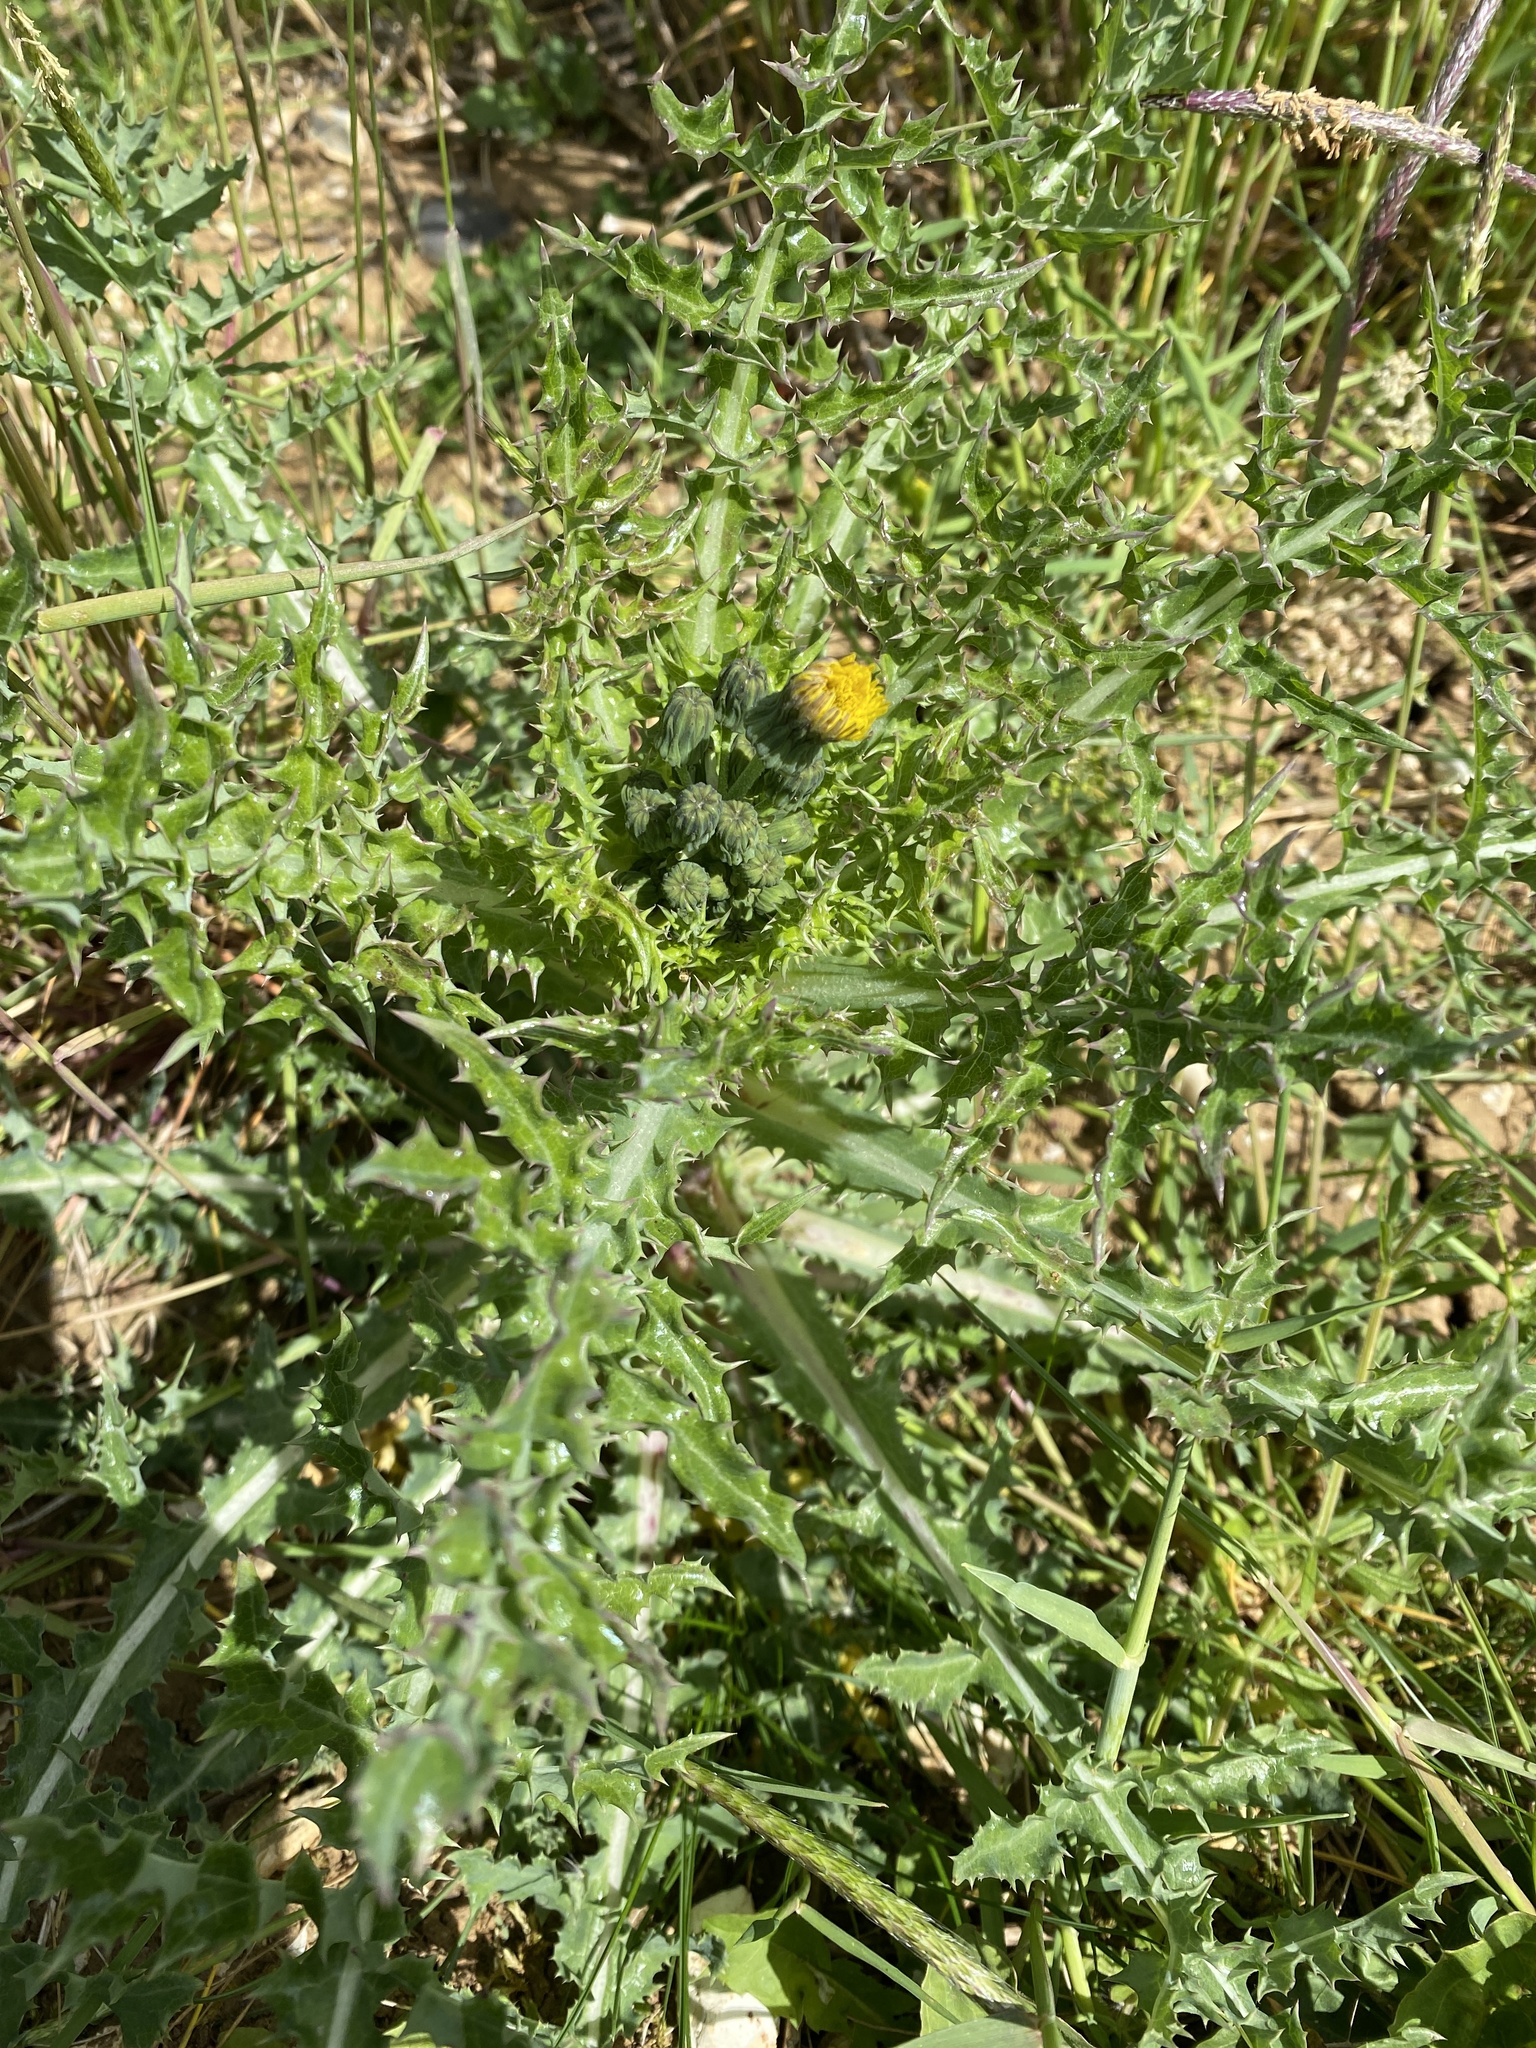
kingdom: Plantae
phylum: Tracheophyta
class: Magnoliopsida
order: Asterales
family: Asteraceae
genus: Sonchus
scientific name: Sonchus asper
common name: Prickly sow-thistle
